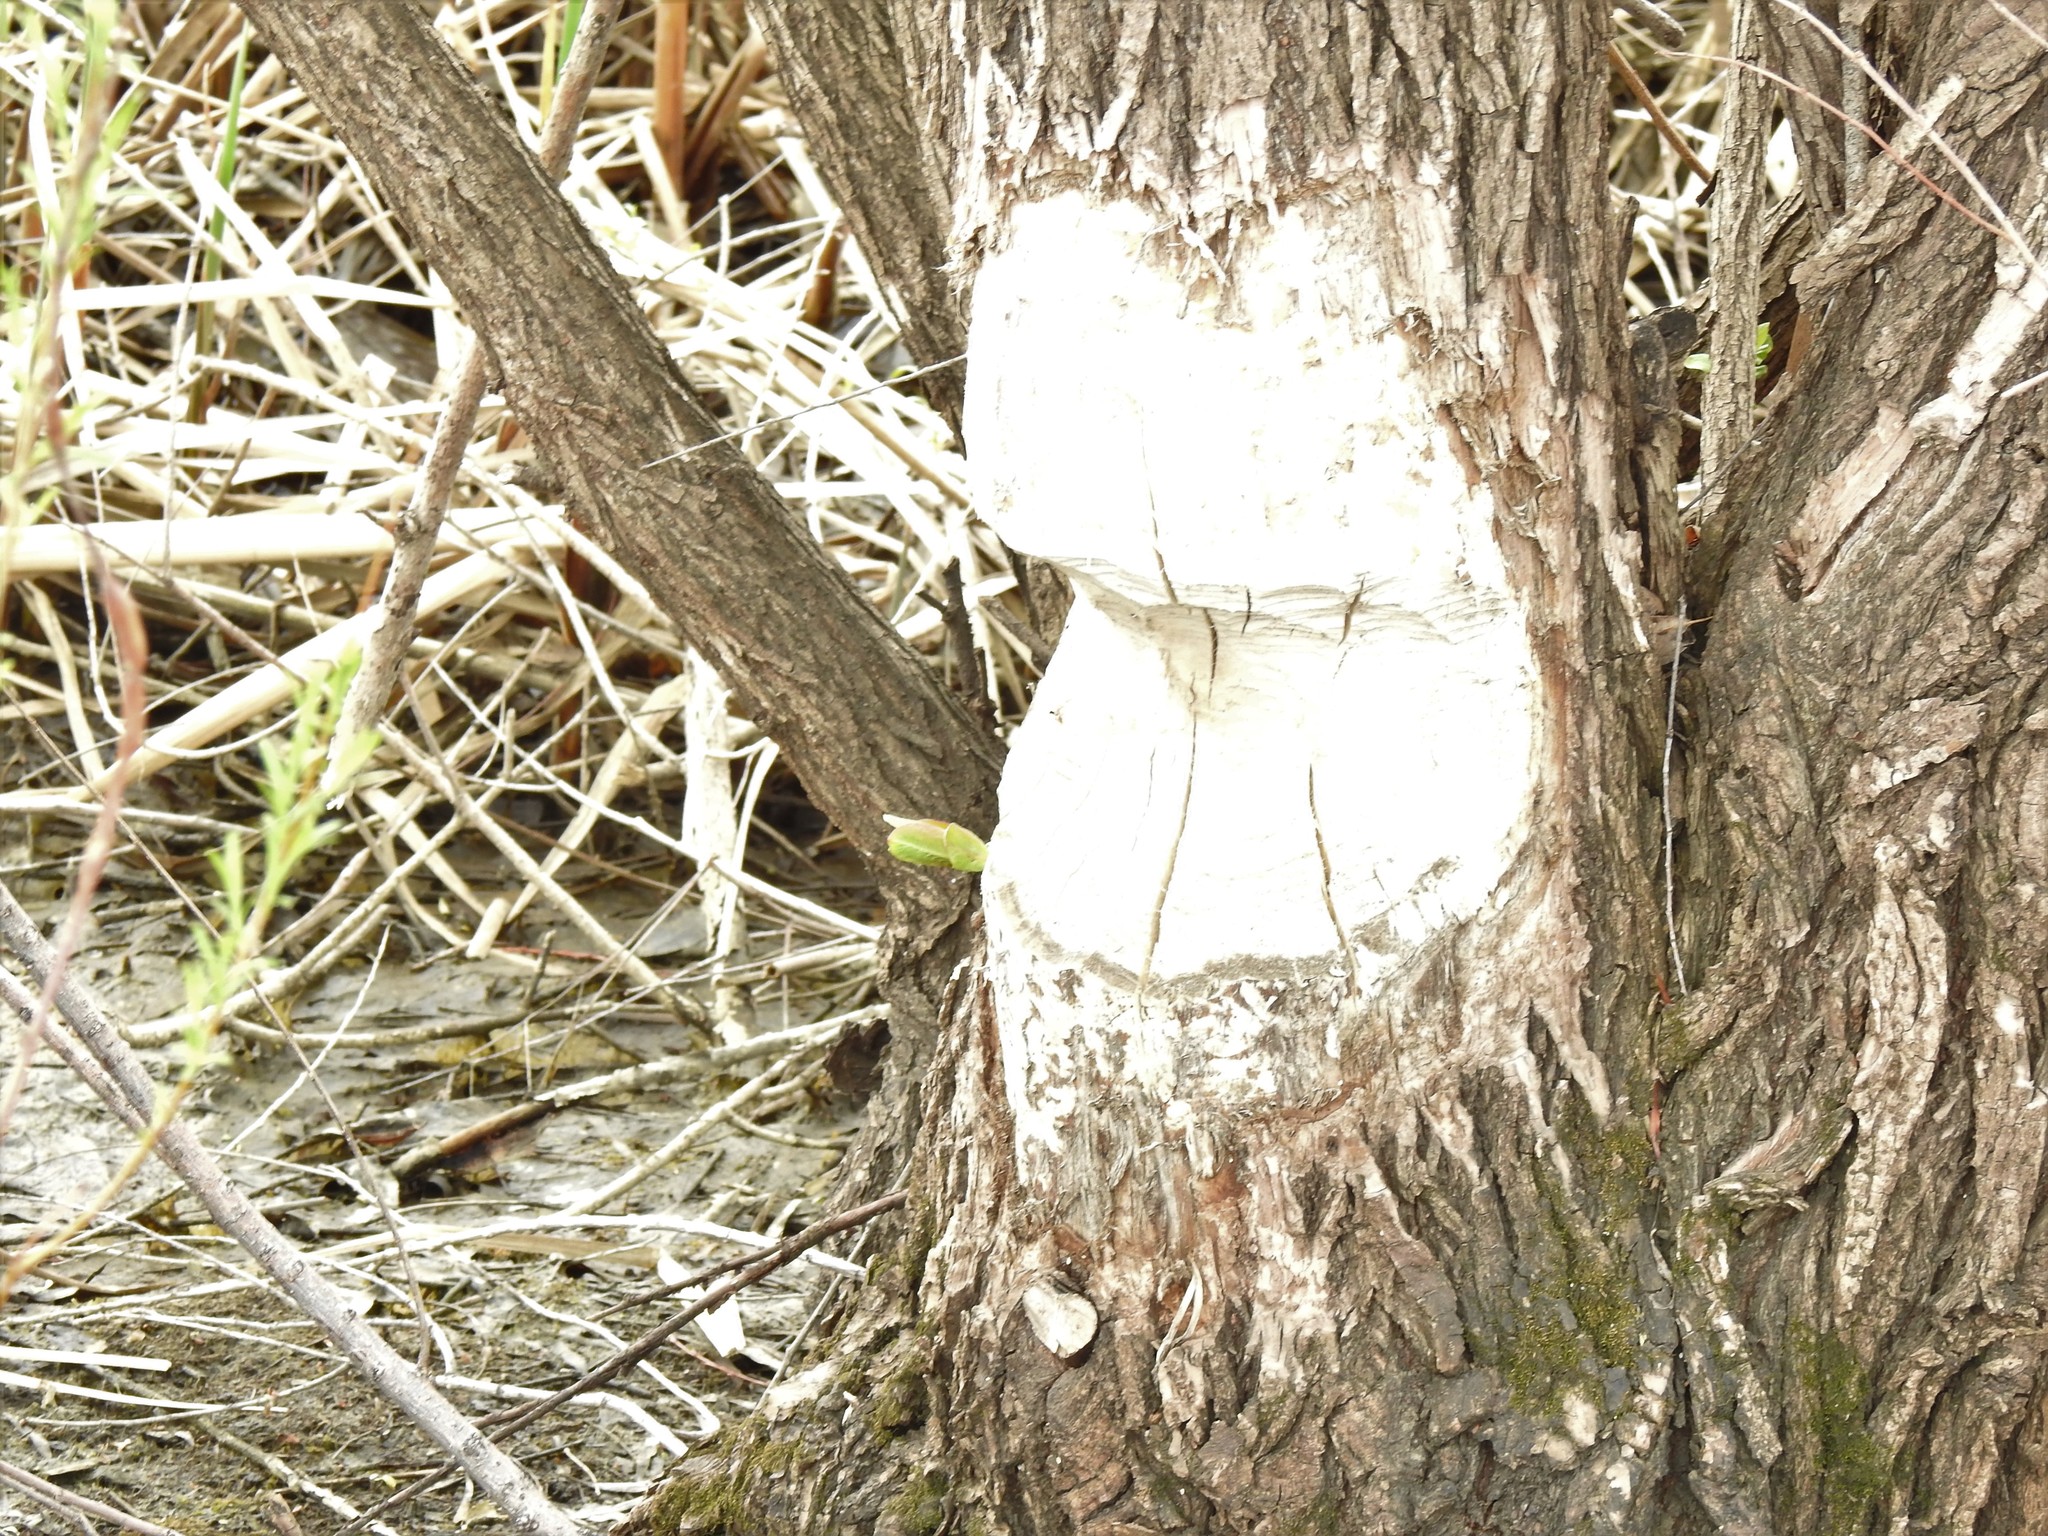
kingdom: Animalia
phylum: Chordata
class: Mammalia
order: Rodentia
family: Castoridae
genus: Castor
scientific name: Castor canadensis
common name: American beaver
